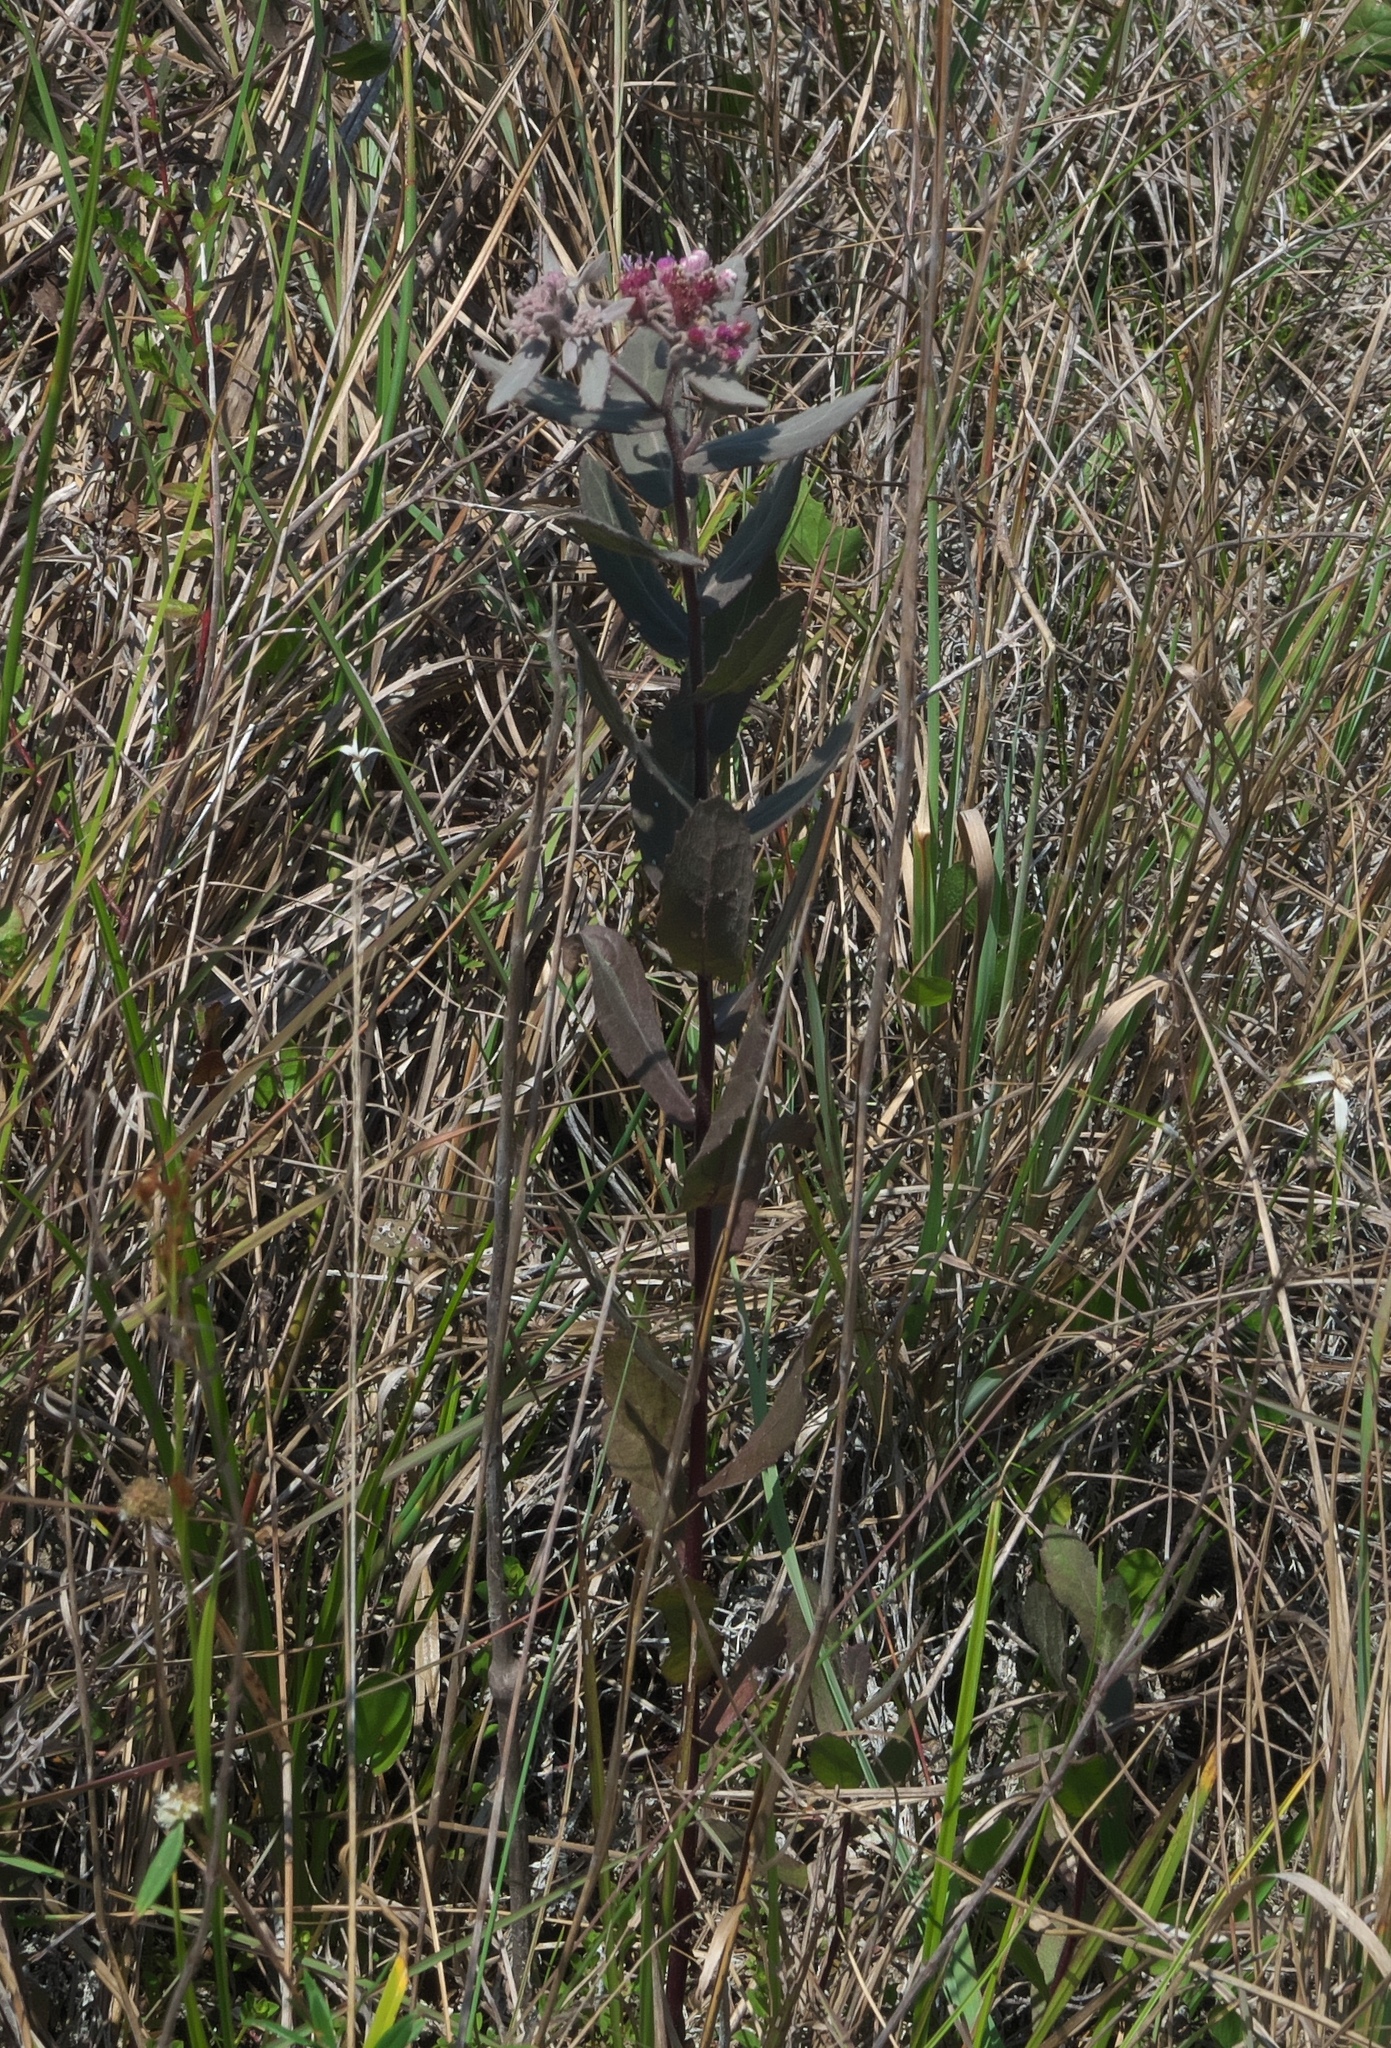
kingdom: Plantae
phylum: Tracheophyta
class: Magnoliopsida
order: Asterales
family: Asteraceae
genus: Pluchea
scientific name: Pluchea baccharis
